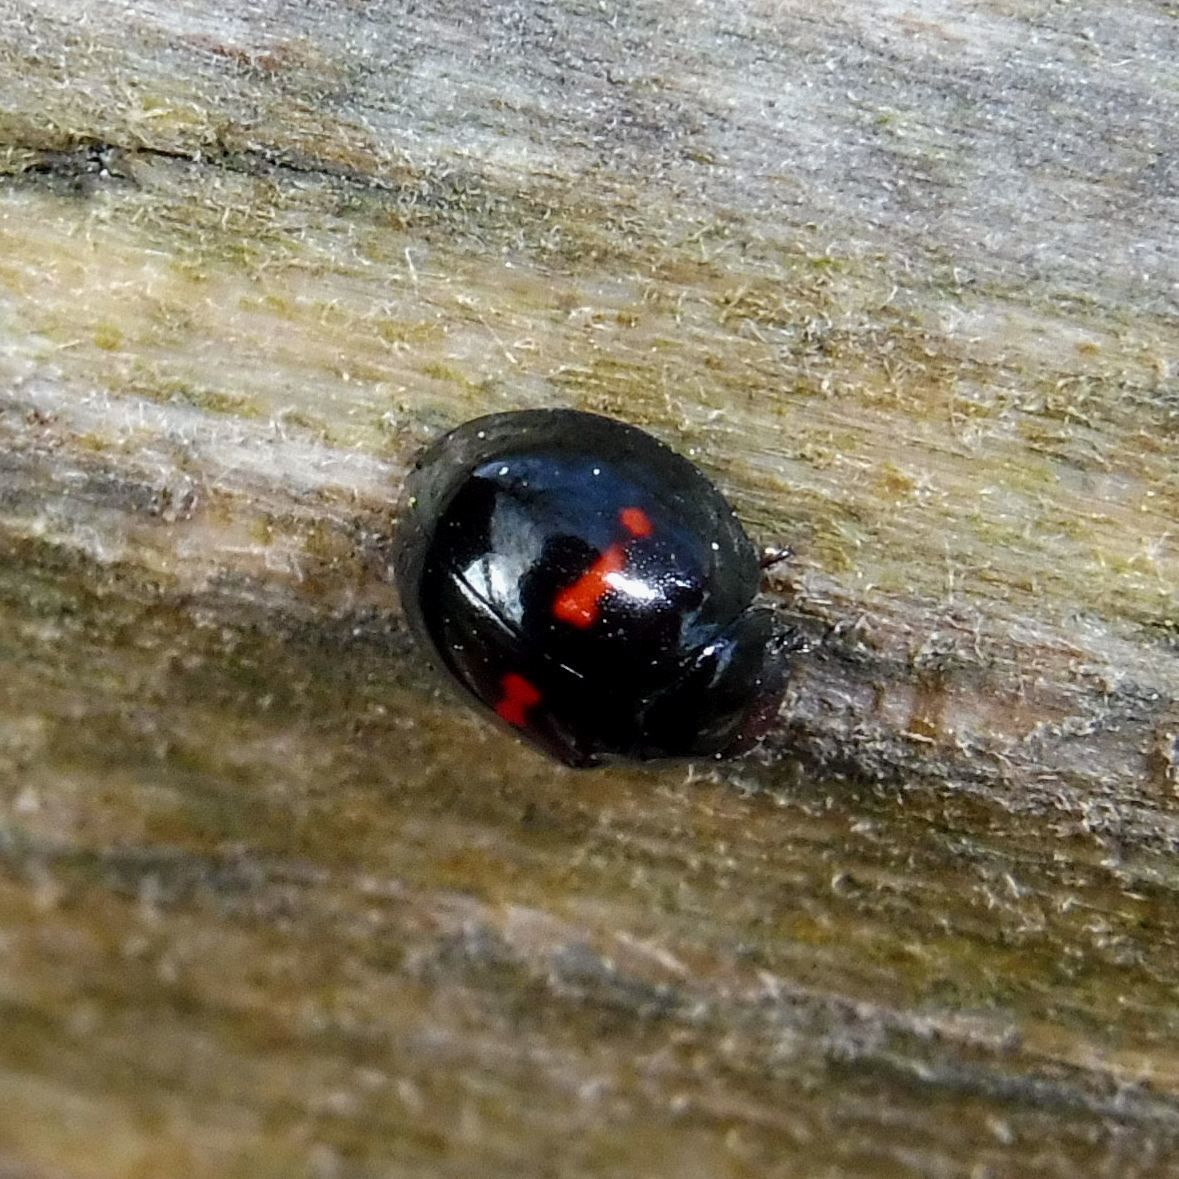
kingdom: Animalia
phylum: Arthropoda
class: Insecta
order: Coleoptera
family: Coccinellidae
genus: Chilocorus
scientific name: Chilocorus bipustulatus
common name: Heather ladybird
